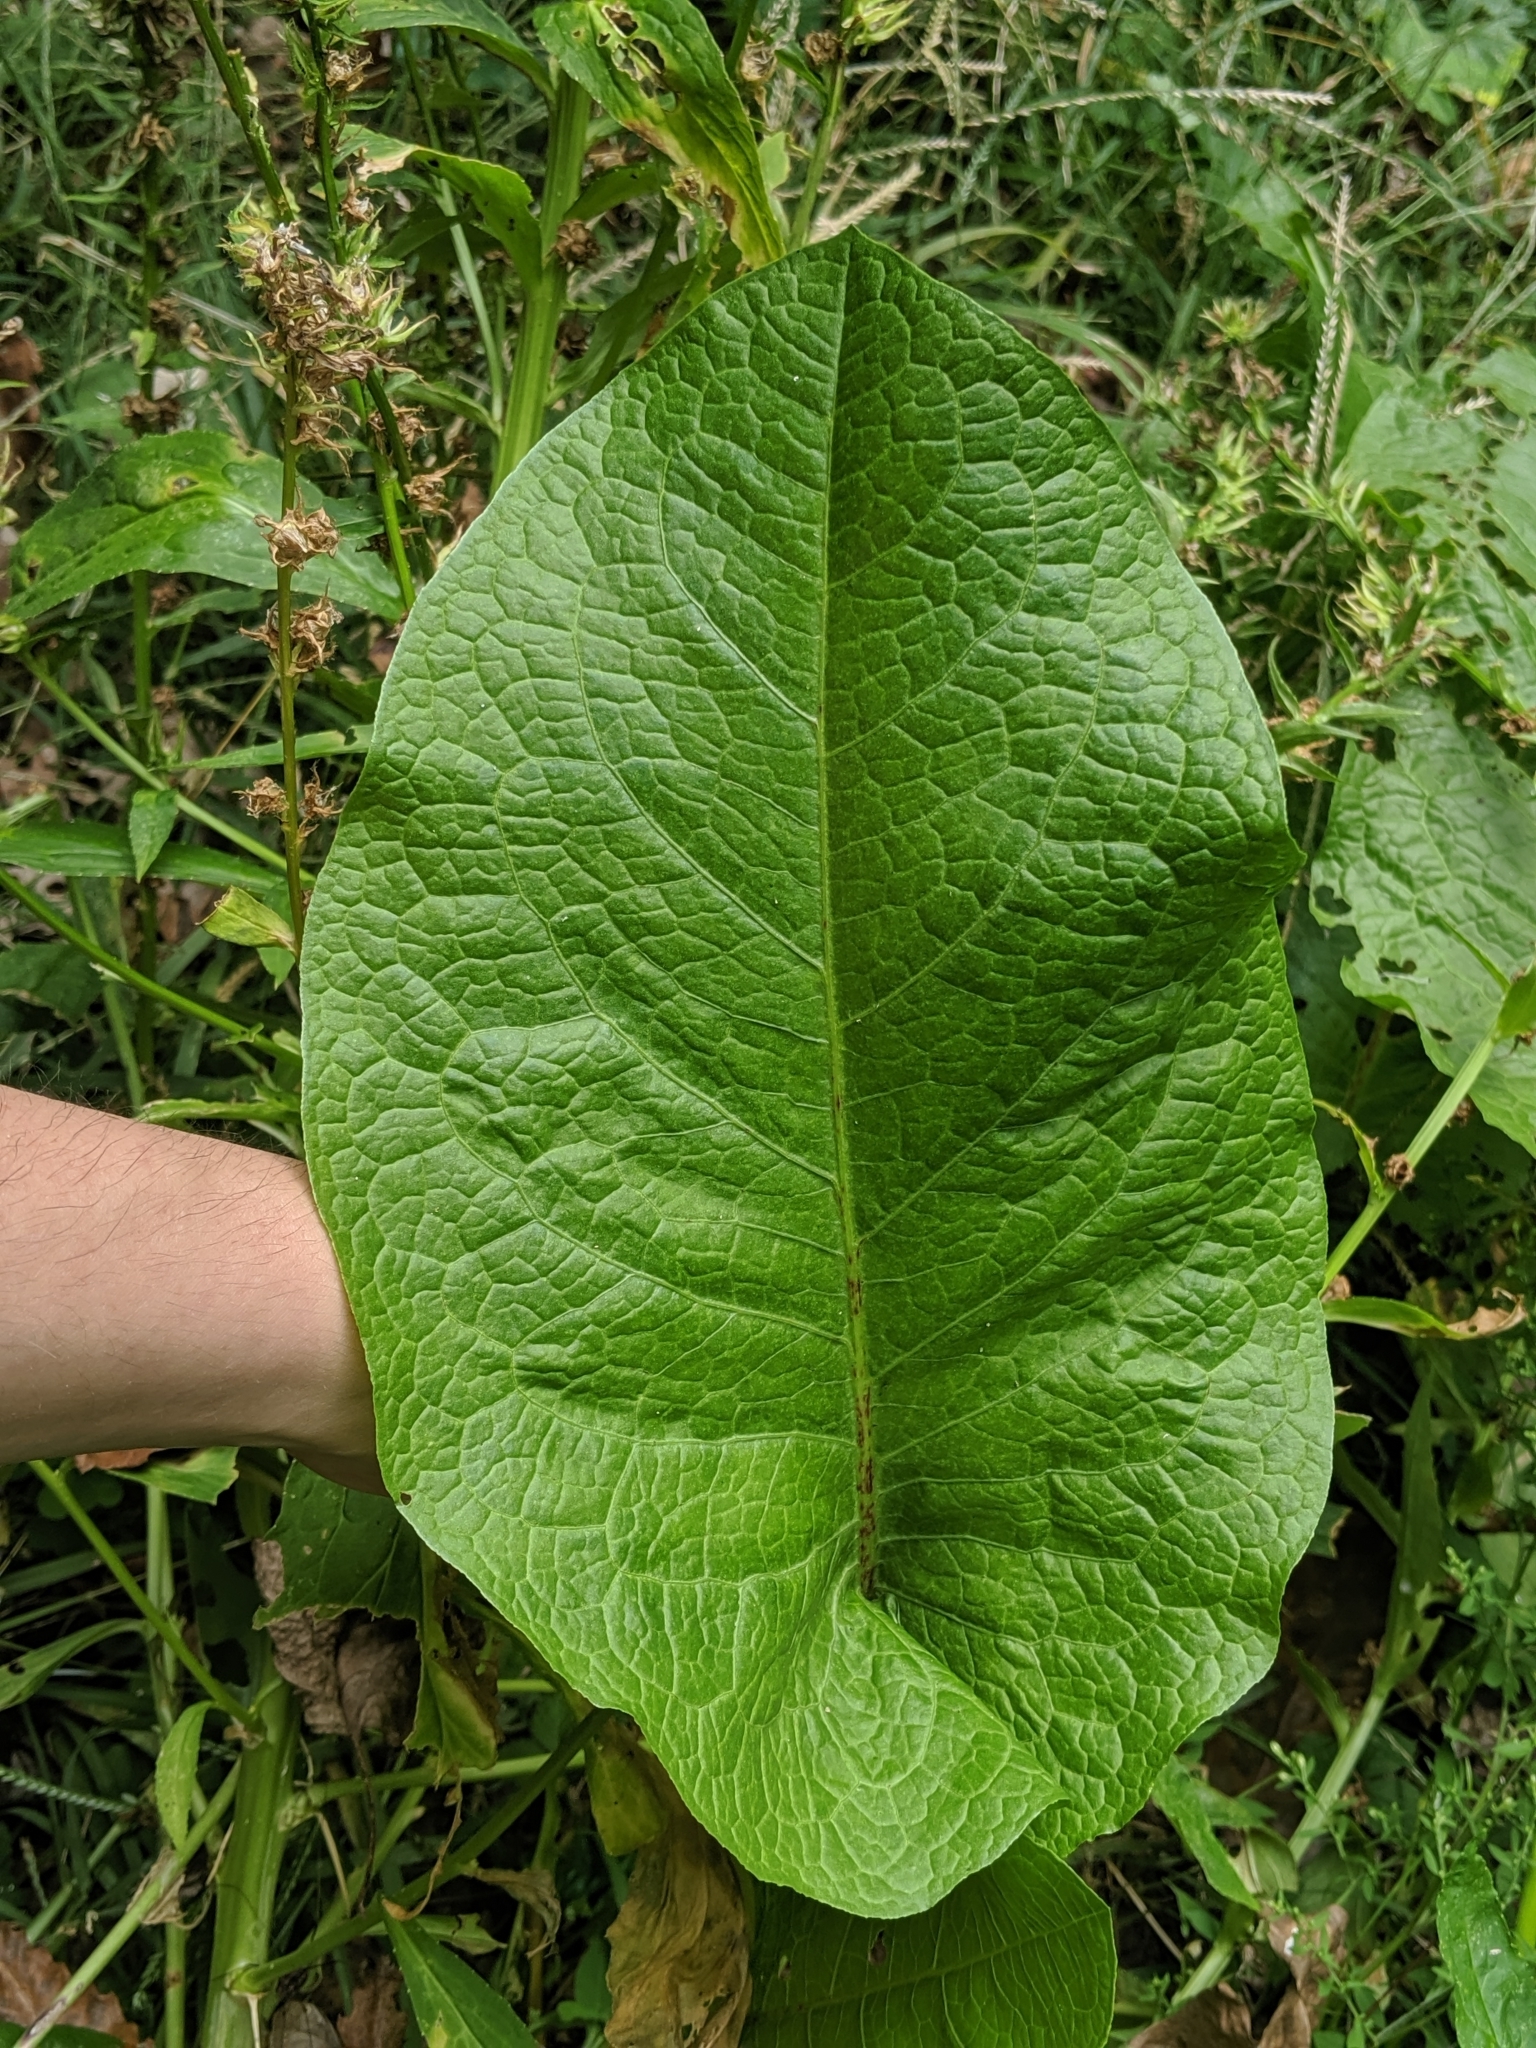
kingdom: Plantae
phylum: Tracheophyta
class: Magnoliopsida
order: Caryophyllales
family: Polygonaceae
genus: Rumex
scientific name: Rumex obtusifolius
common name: Bitter dock
